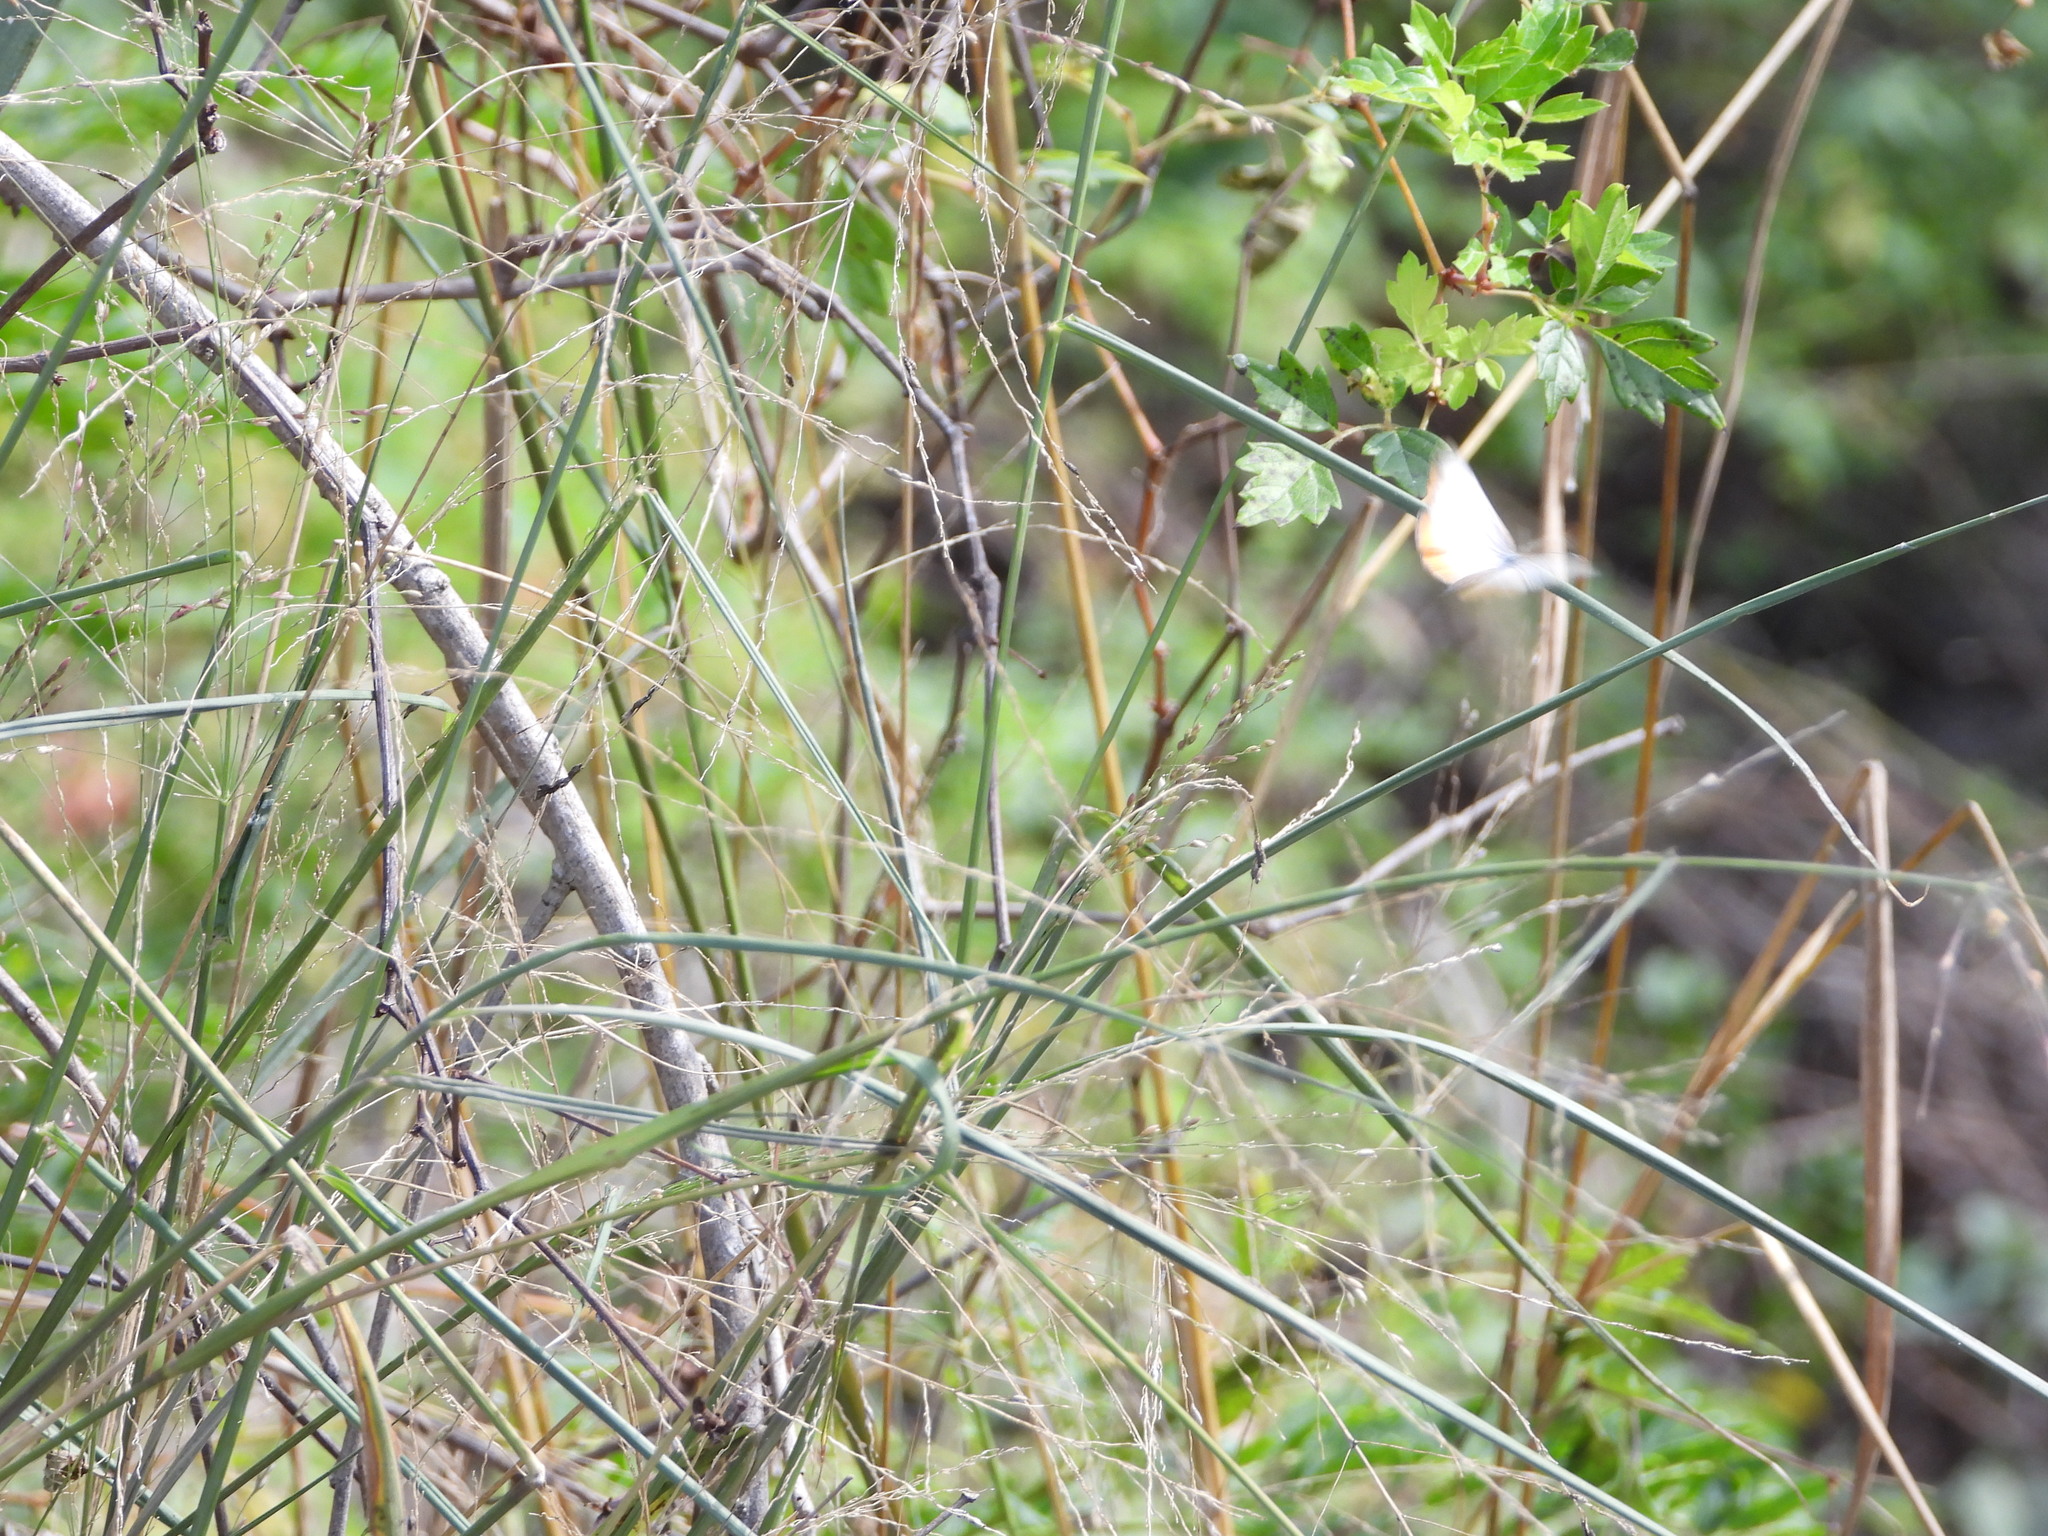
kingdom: Plantae
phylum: Tracheophyta
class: Liliopsida
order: Poales
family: Poaceae
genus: Megathyrsus
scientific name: Megathyrsus maximus
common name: Guineagrass
